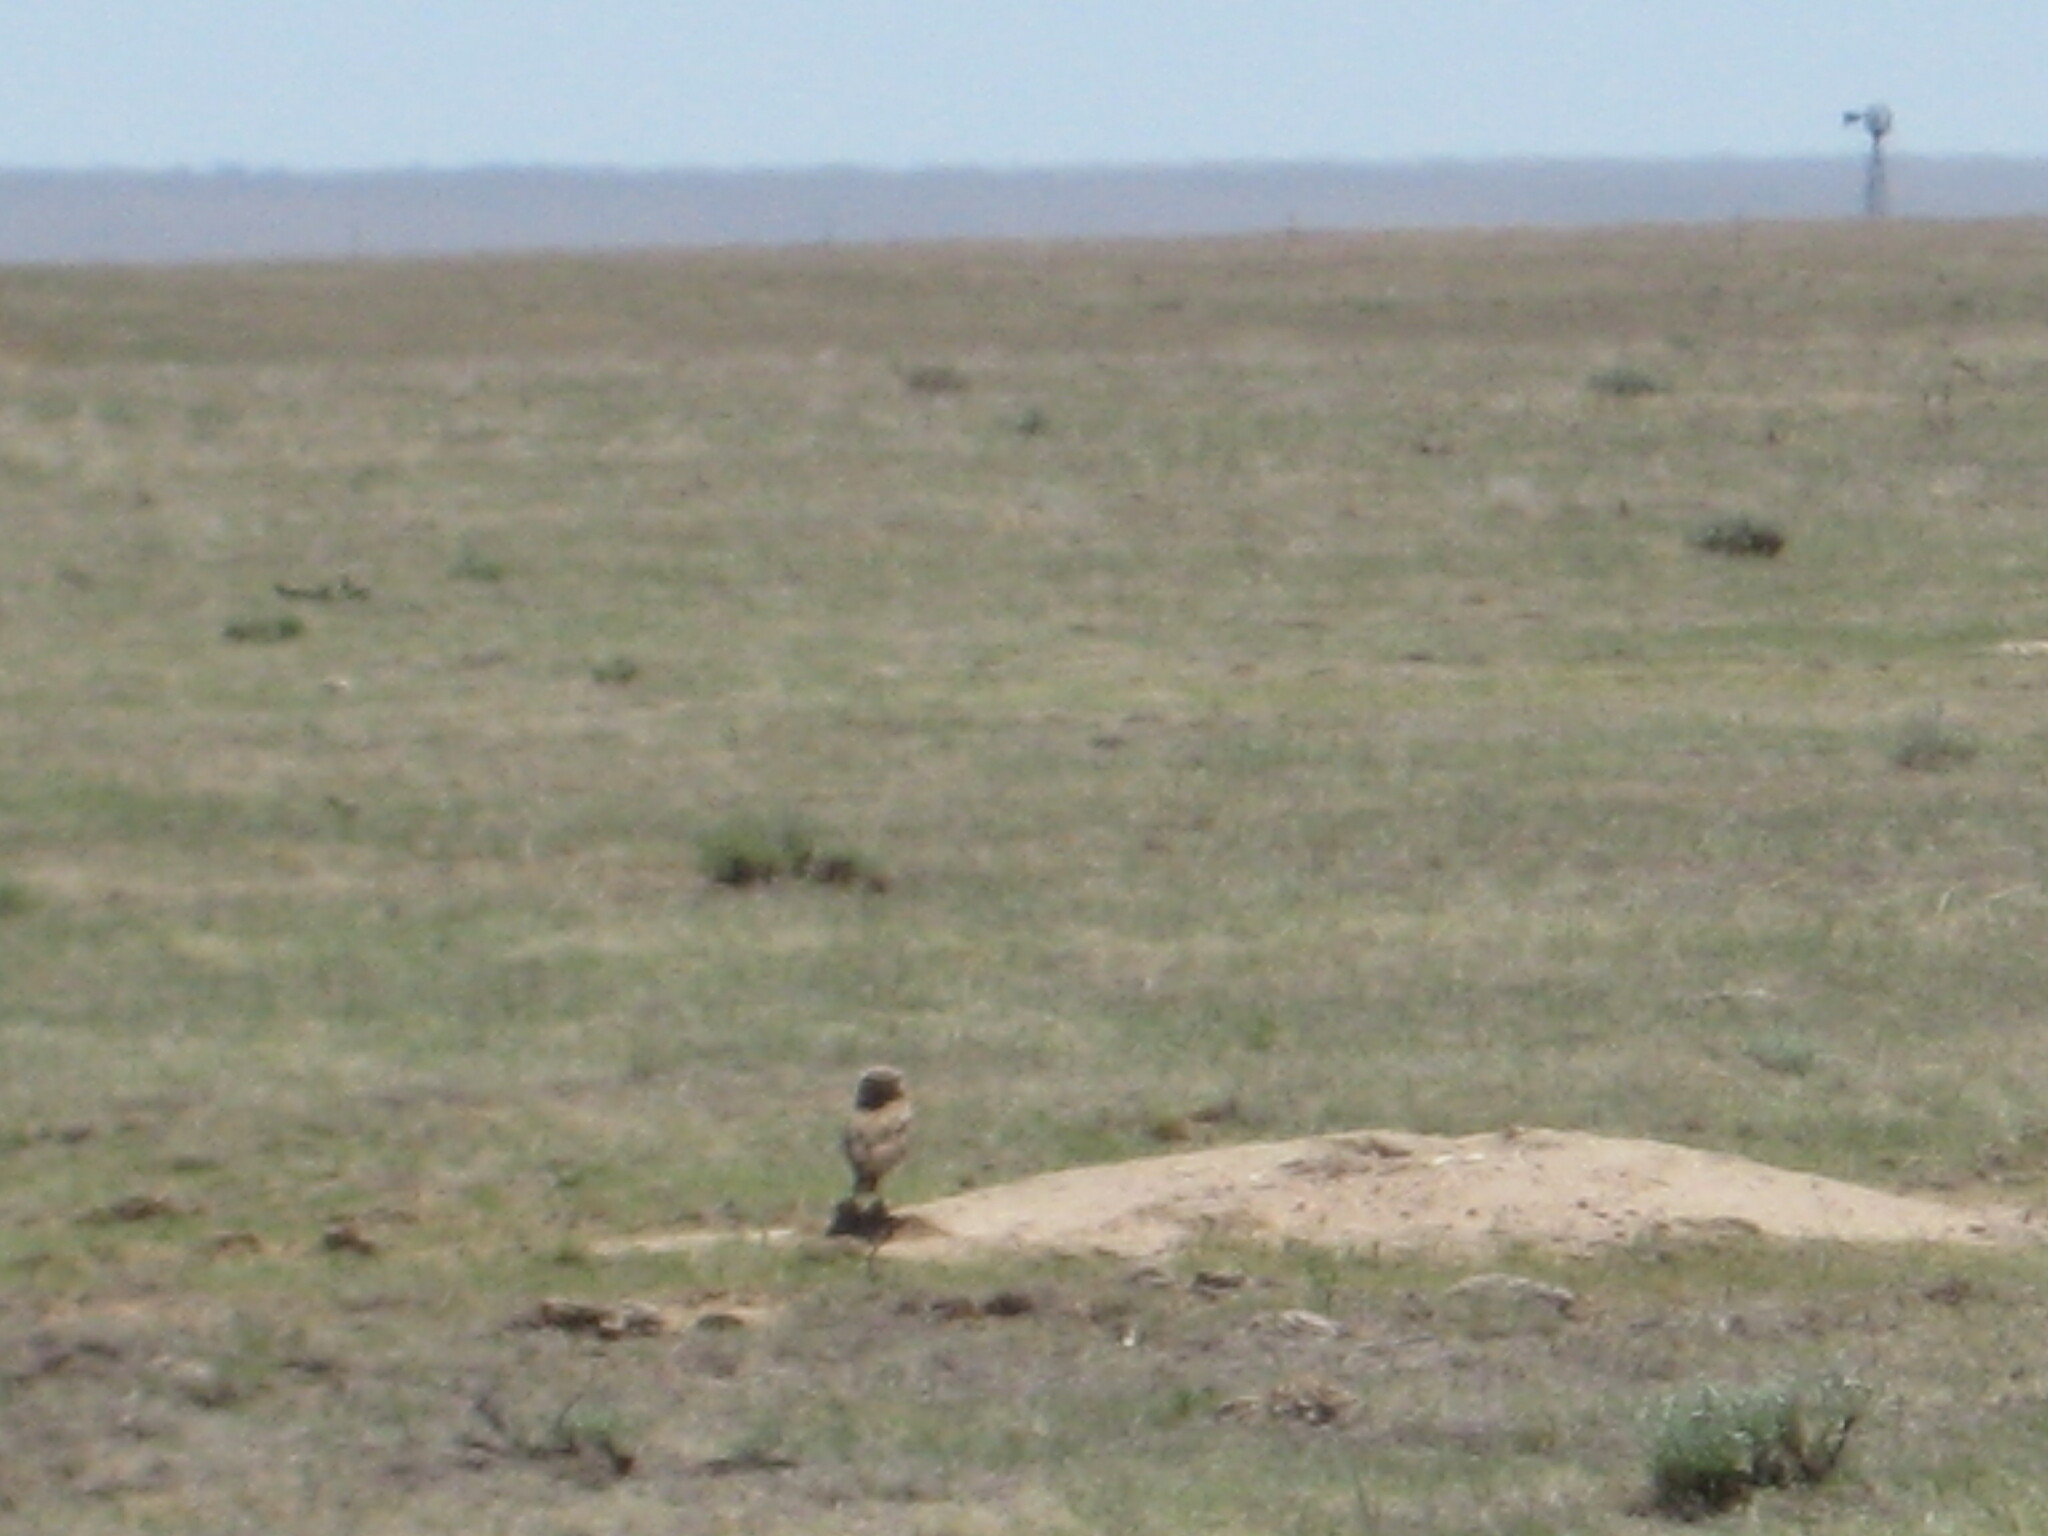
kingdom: Animalia
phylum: Chordata
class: Aves
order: Strigiformes
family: Strigidae
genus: Athene
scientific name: Athene cunicularia
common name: Burrowing owl
